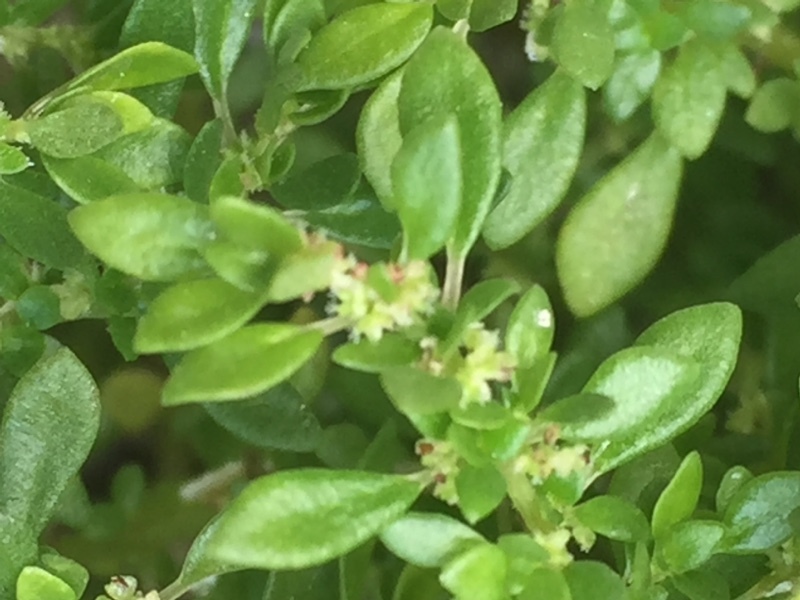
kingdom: Plantae
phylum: Tracheophyta
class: Magnoliopsida
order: Rosales
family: Urticaceae
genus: Pilea
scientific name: Pilea microphylla
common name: Artillery-plant
